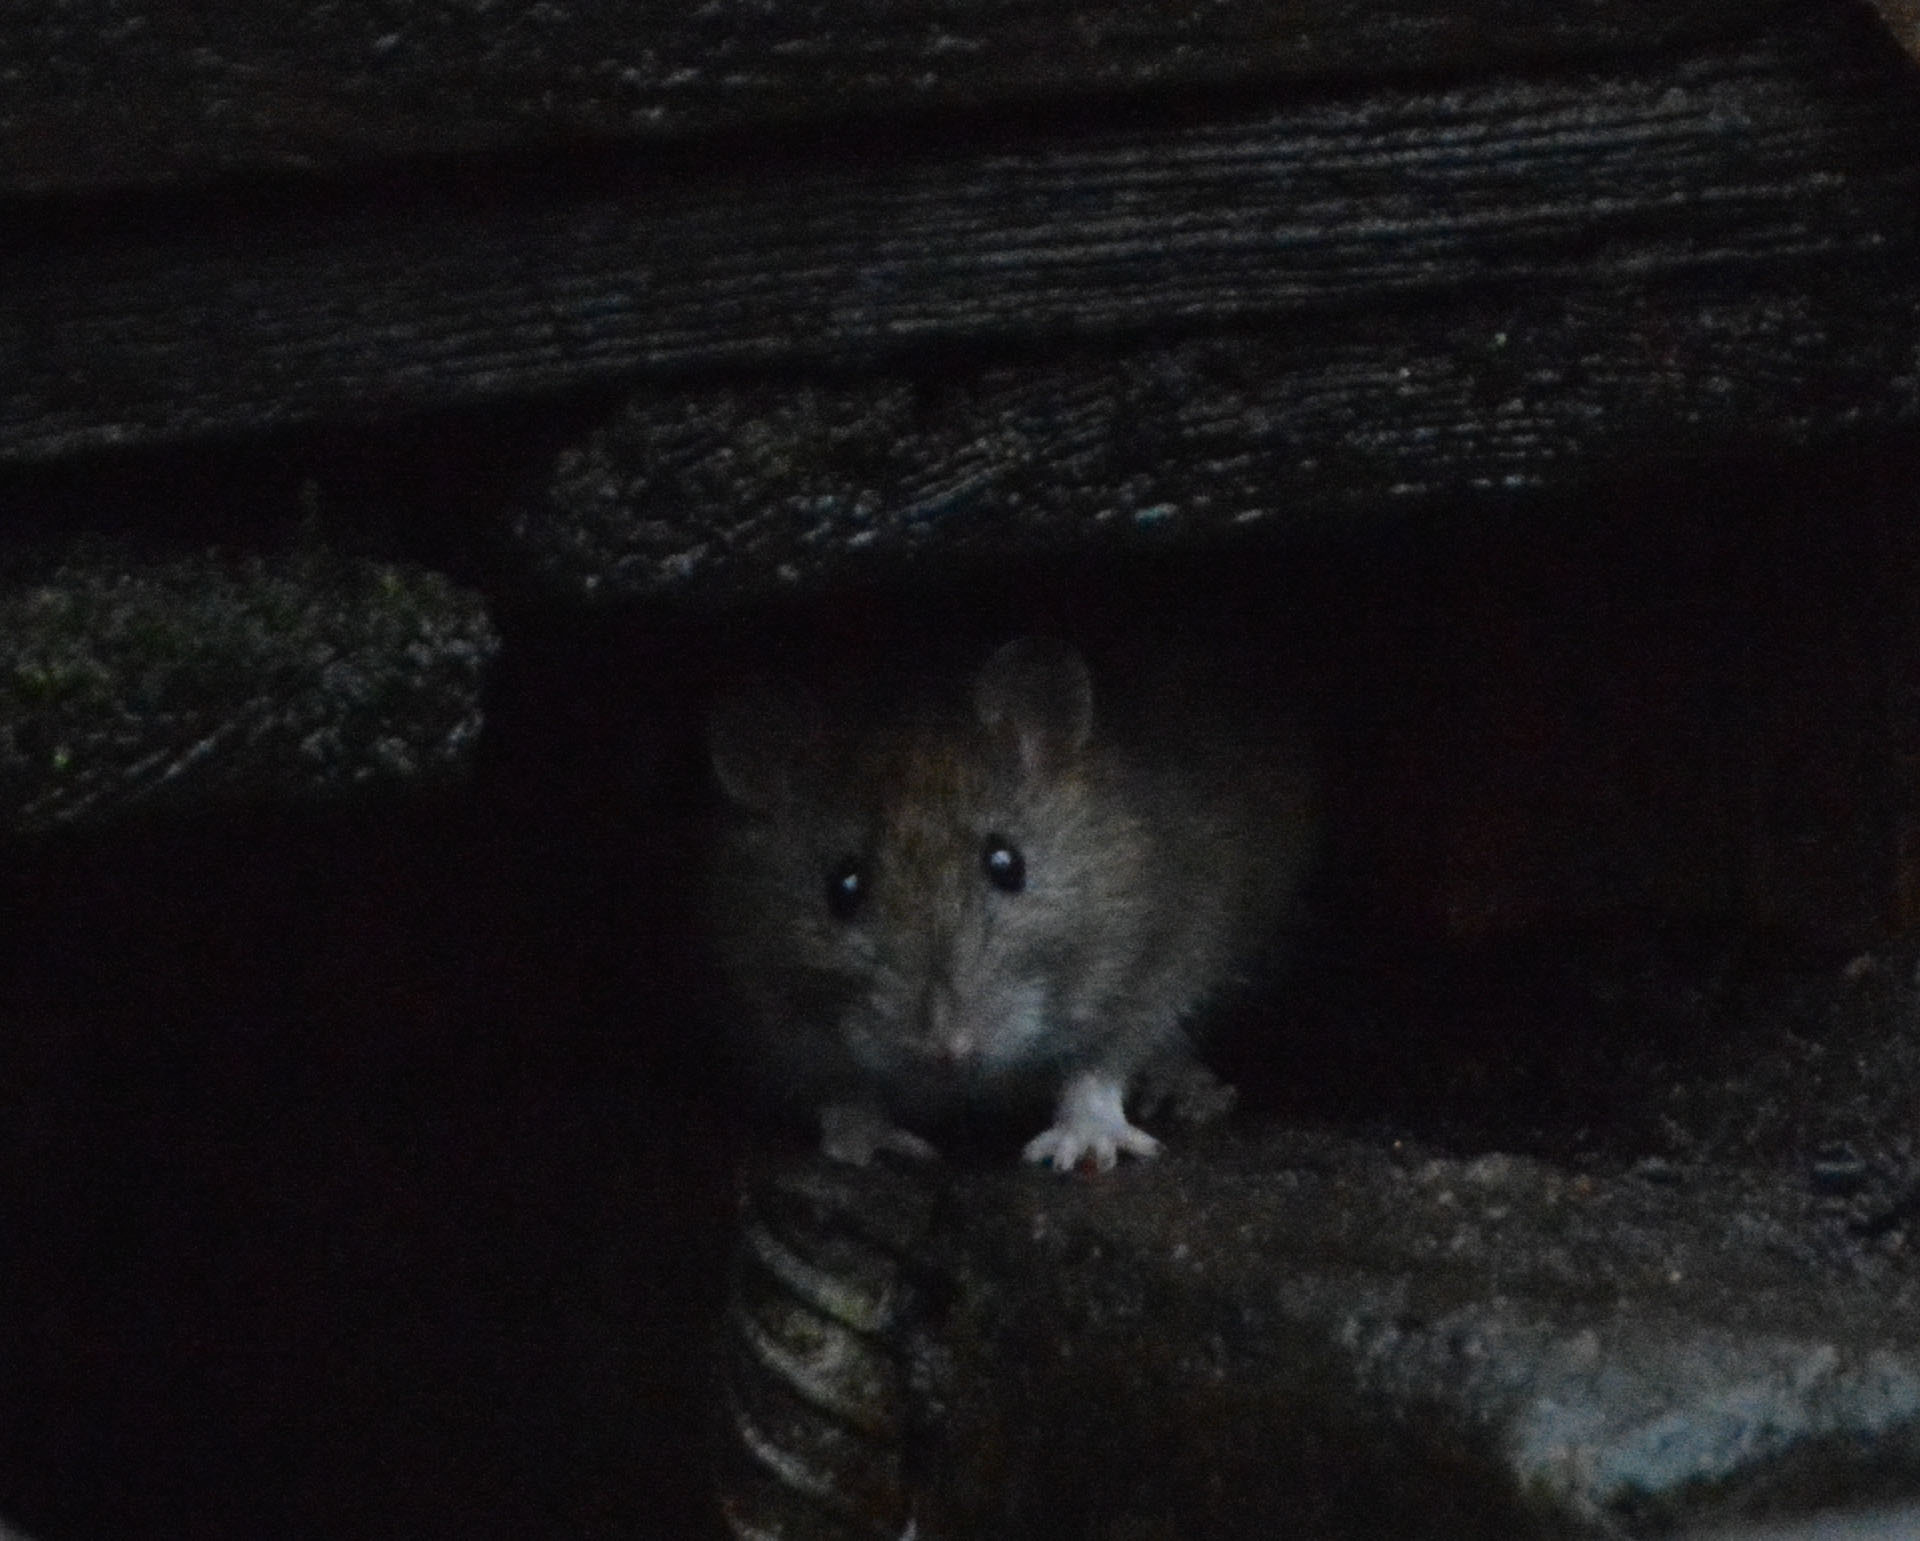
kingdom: Animalia
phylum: Chordata
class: Mammalia
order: Rodentia
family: Muridae
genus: Rattus
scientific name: Rattus norvegicus
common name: Brown rat
